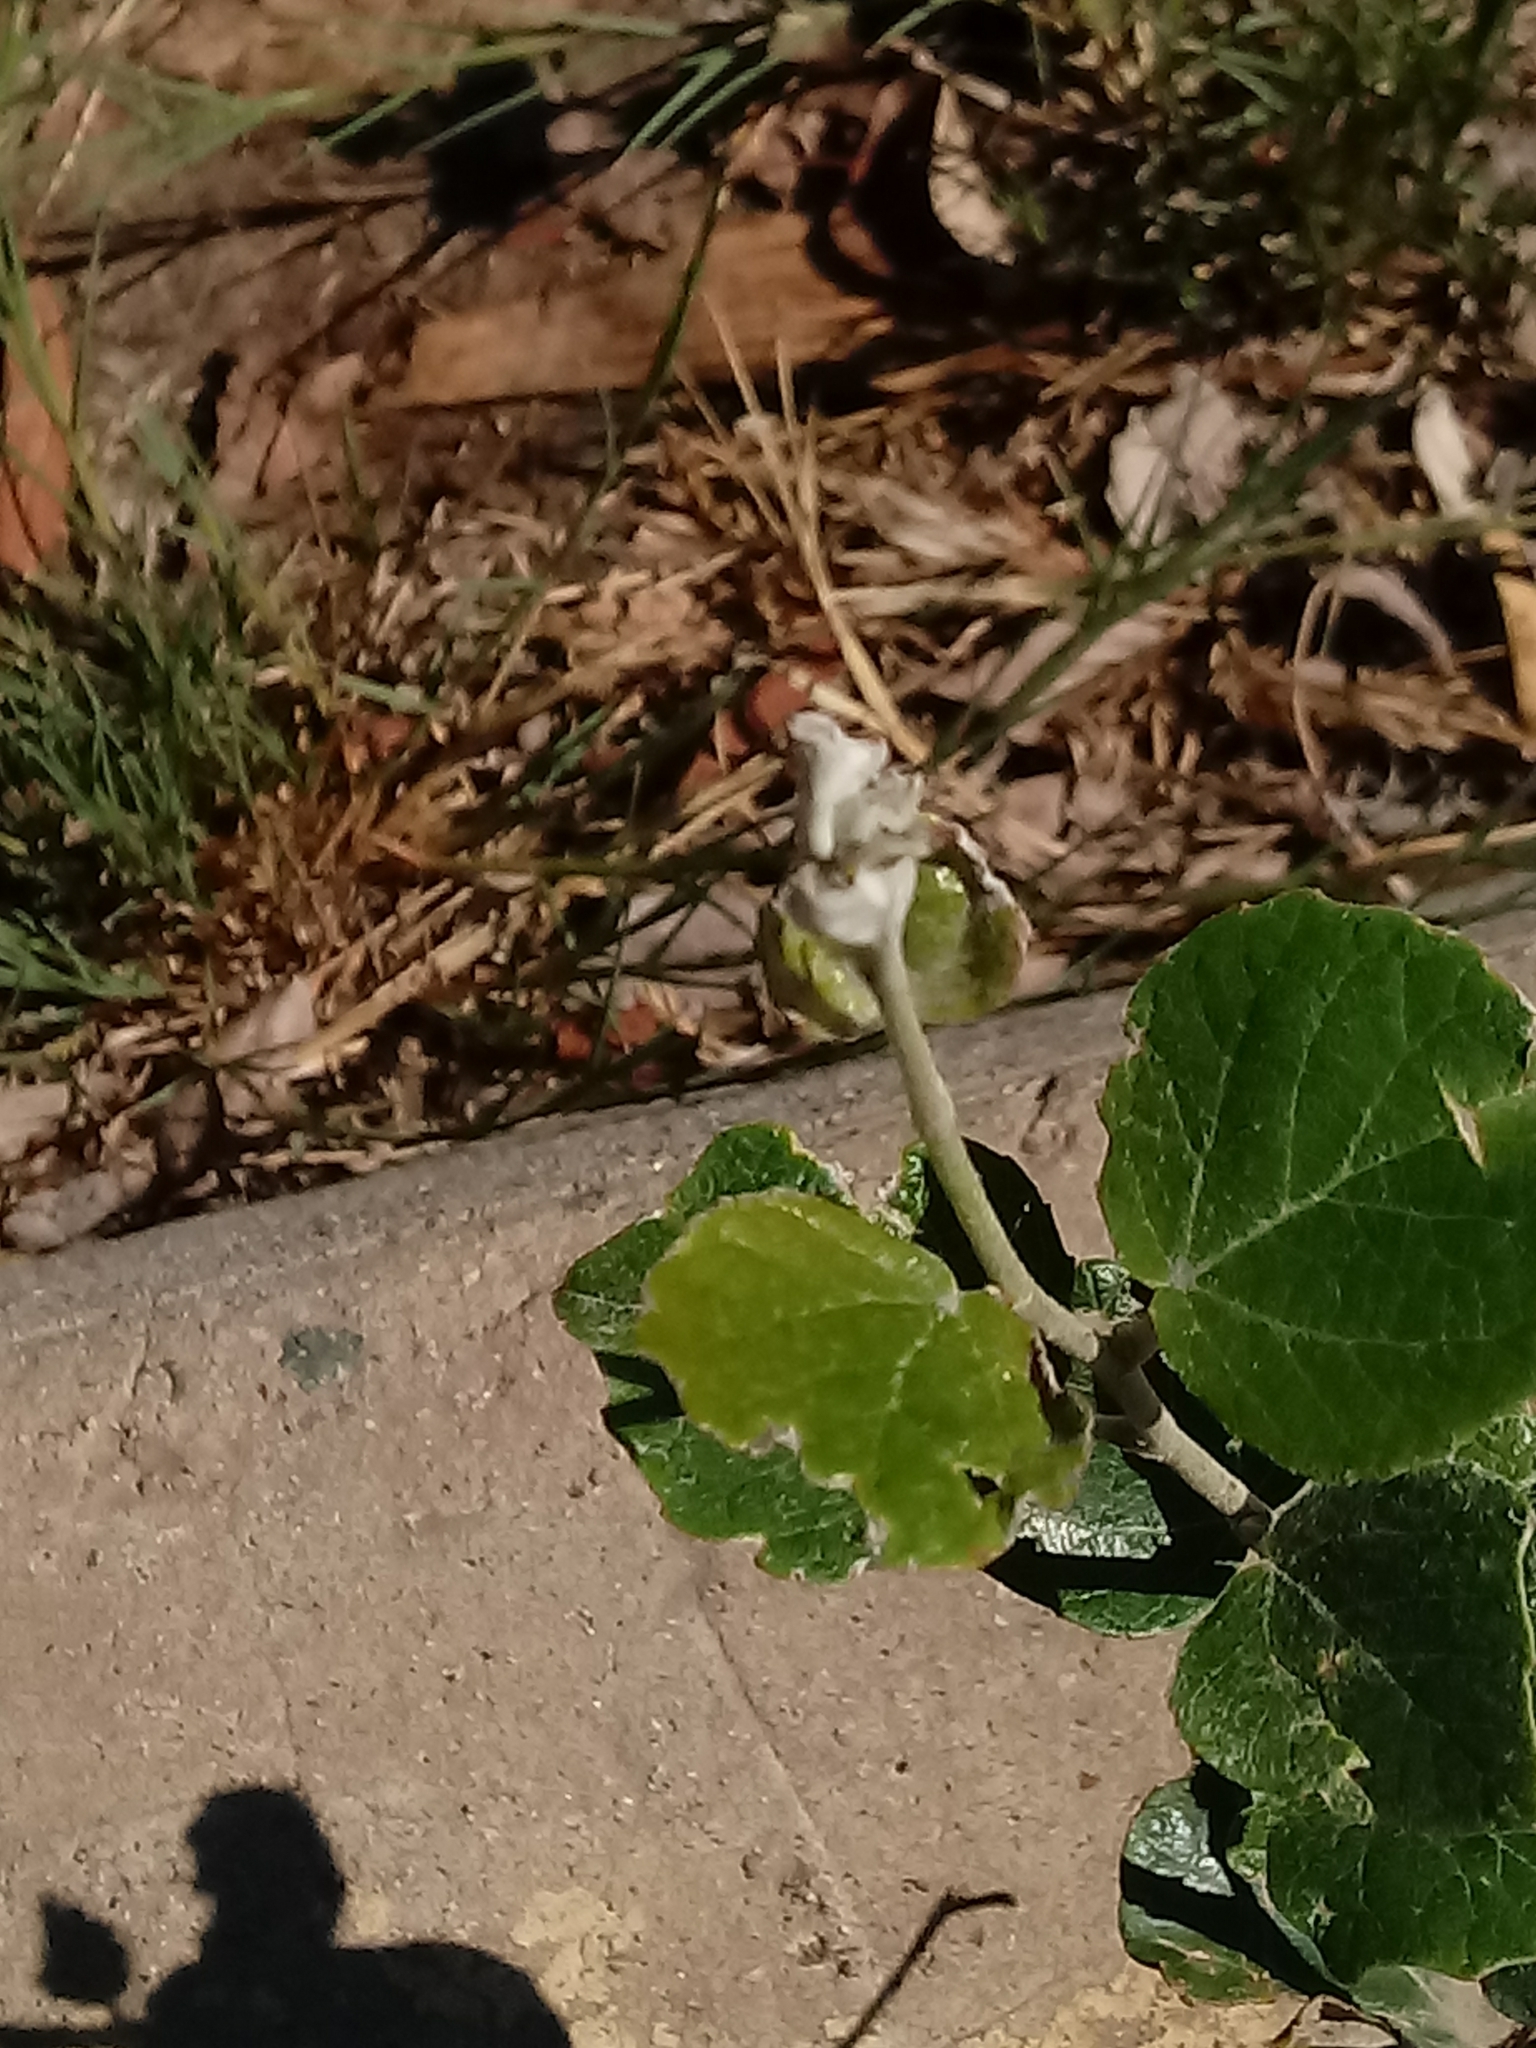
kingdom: Plantae
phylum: Tracheophyta
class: Magnoliopsida
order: Malpighiales
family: Salicaceae
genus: Populus
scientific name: Populus alba
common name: White poplar
